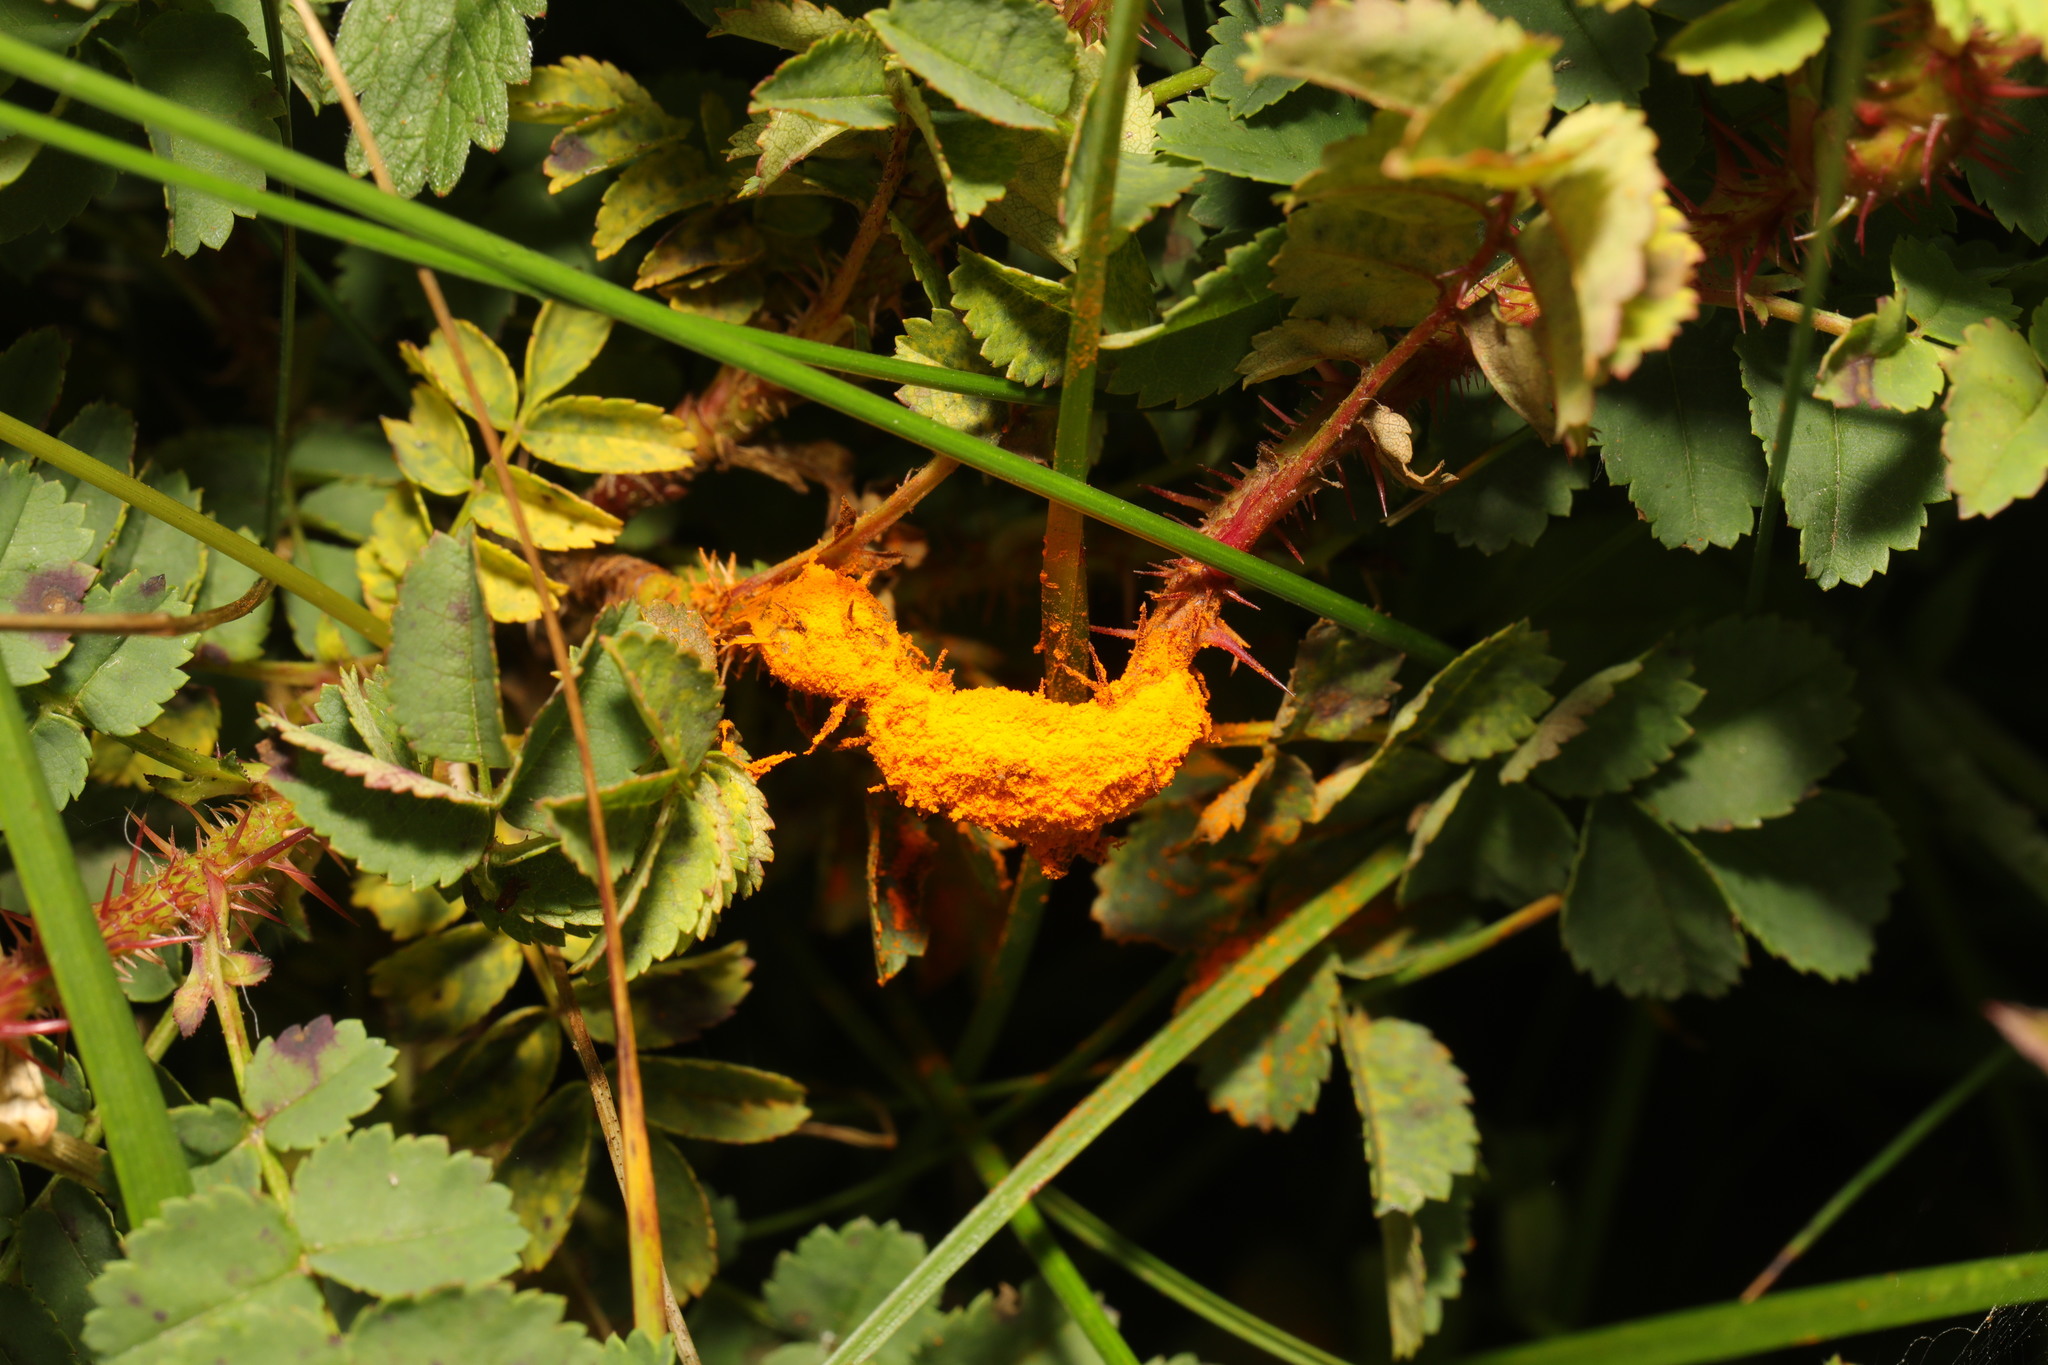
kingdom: Fungi
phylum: Basidiomycota
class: Pucciniomycetes
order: Pucciniales
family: Phragmidiaceae
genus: Phragmidium
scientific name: Phragmidium rosae-pimpinellifoliae
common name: Burnet rose rust
